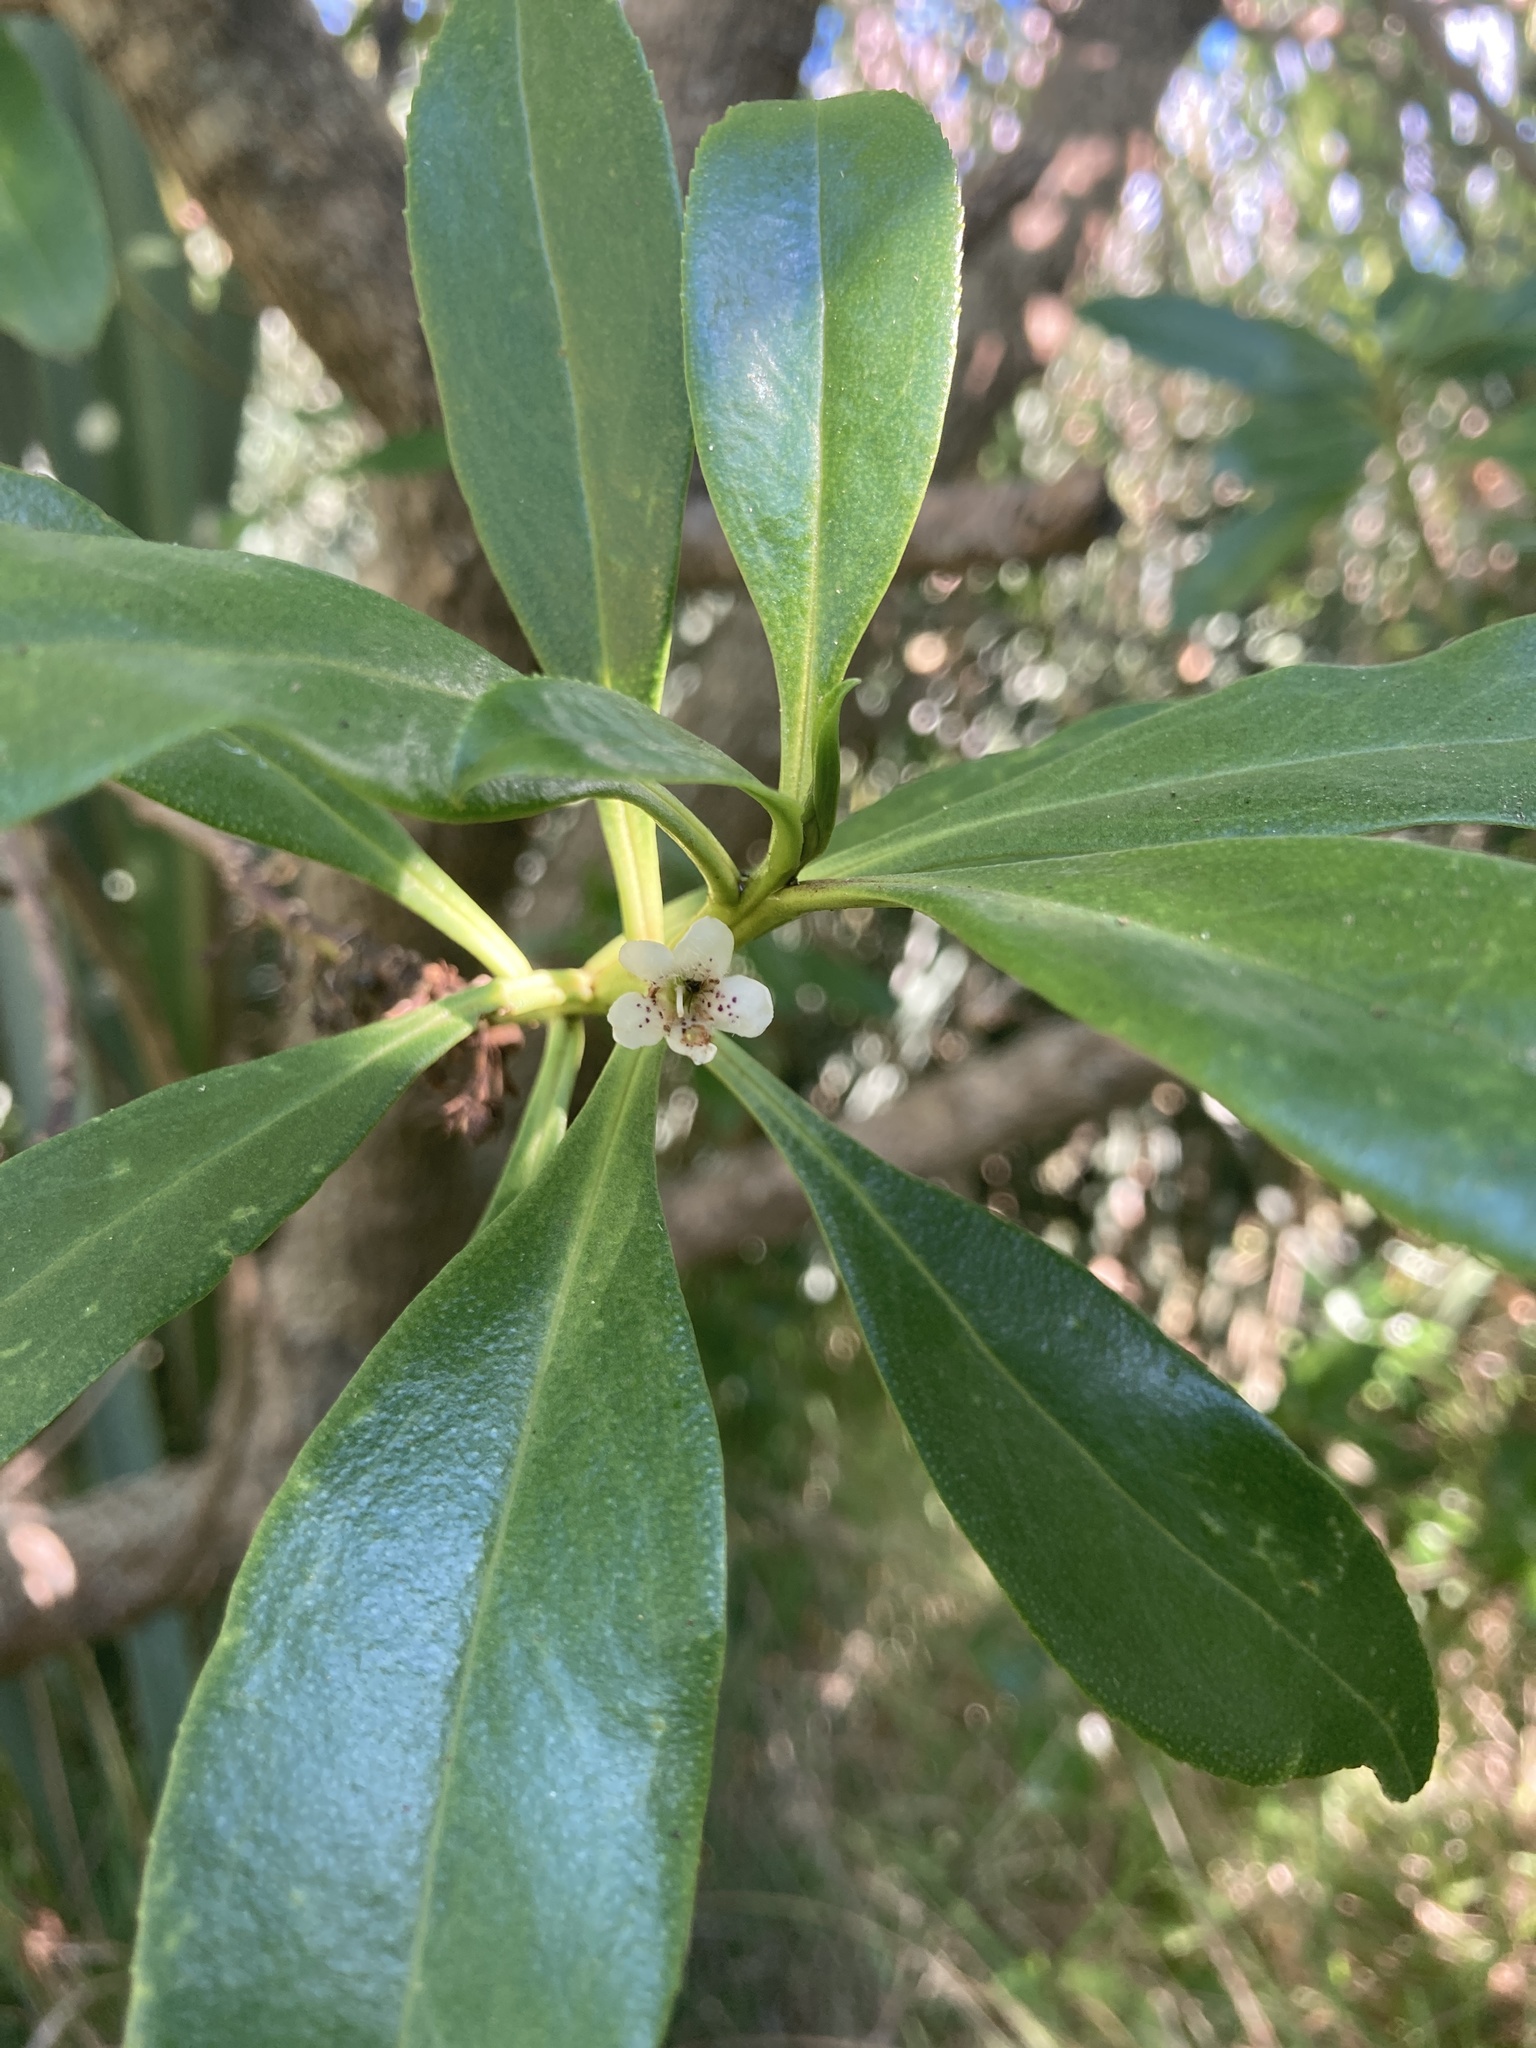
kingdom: Plantae
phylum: Tracheophyta
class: Magnoliopsida
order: Lamiales
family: Scrophulariaceae
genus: Myoporum
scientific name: Myoporum laetum
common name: Ngaio tree
